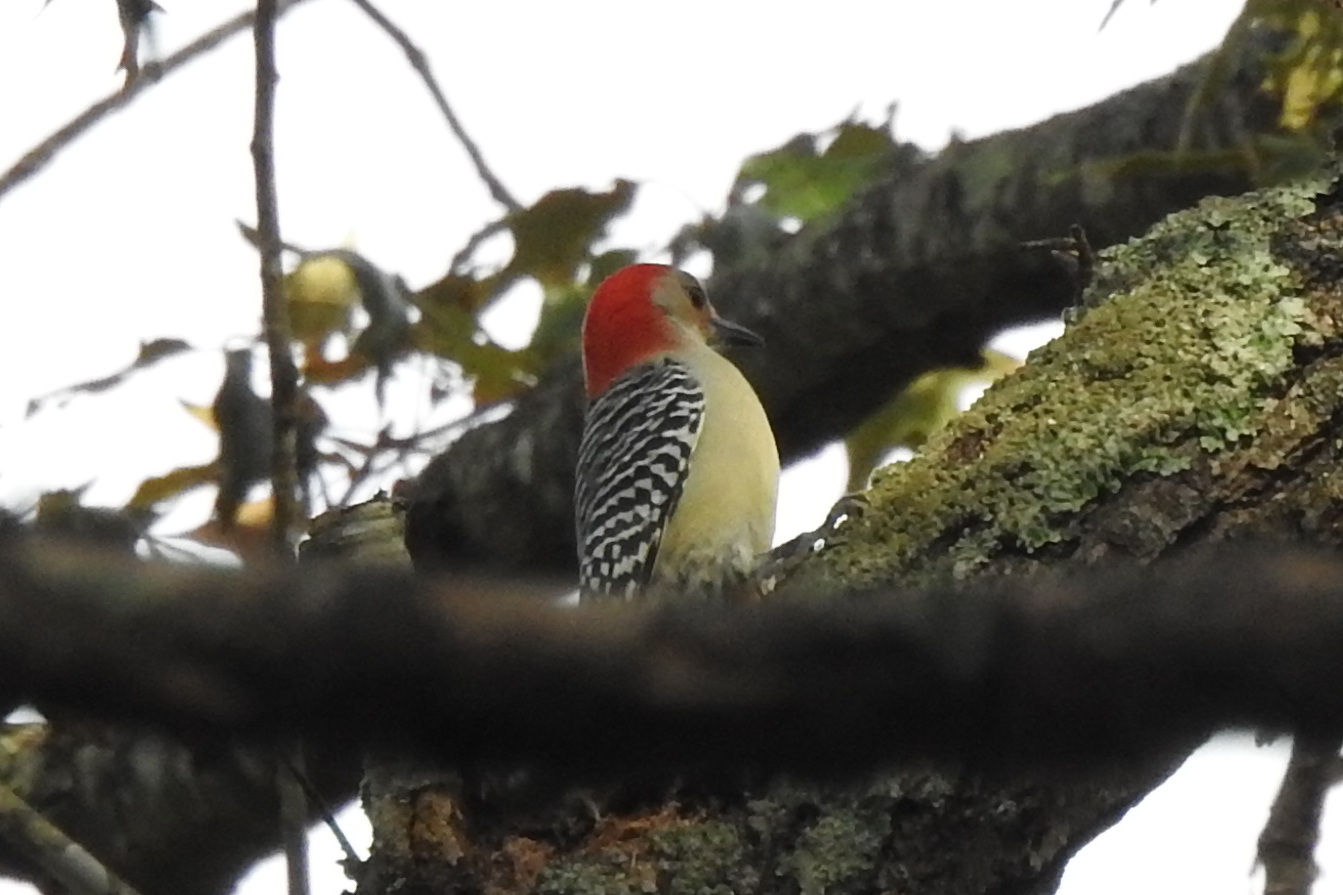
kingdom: Animalia
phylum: Chordata
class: Aves
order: Piciformes
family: Picidae
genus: Melanerpes
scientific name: Melanerpes carolinus
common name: Red-bellied woodpecker
